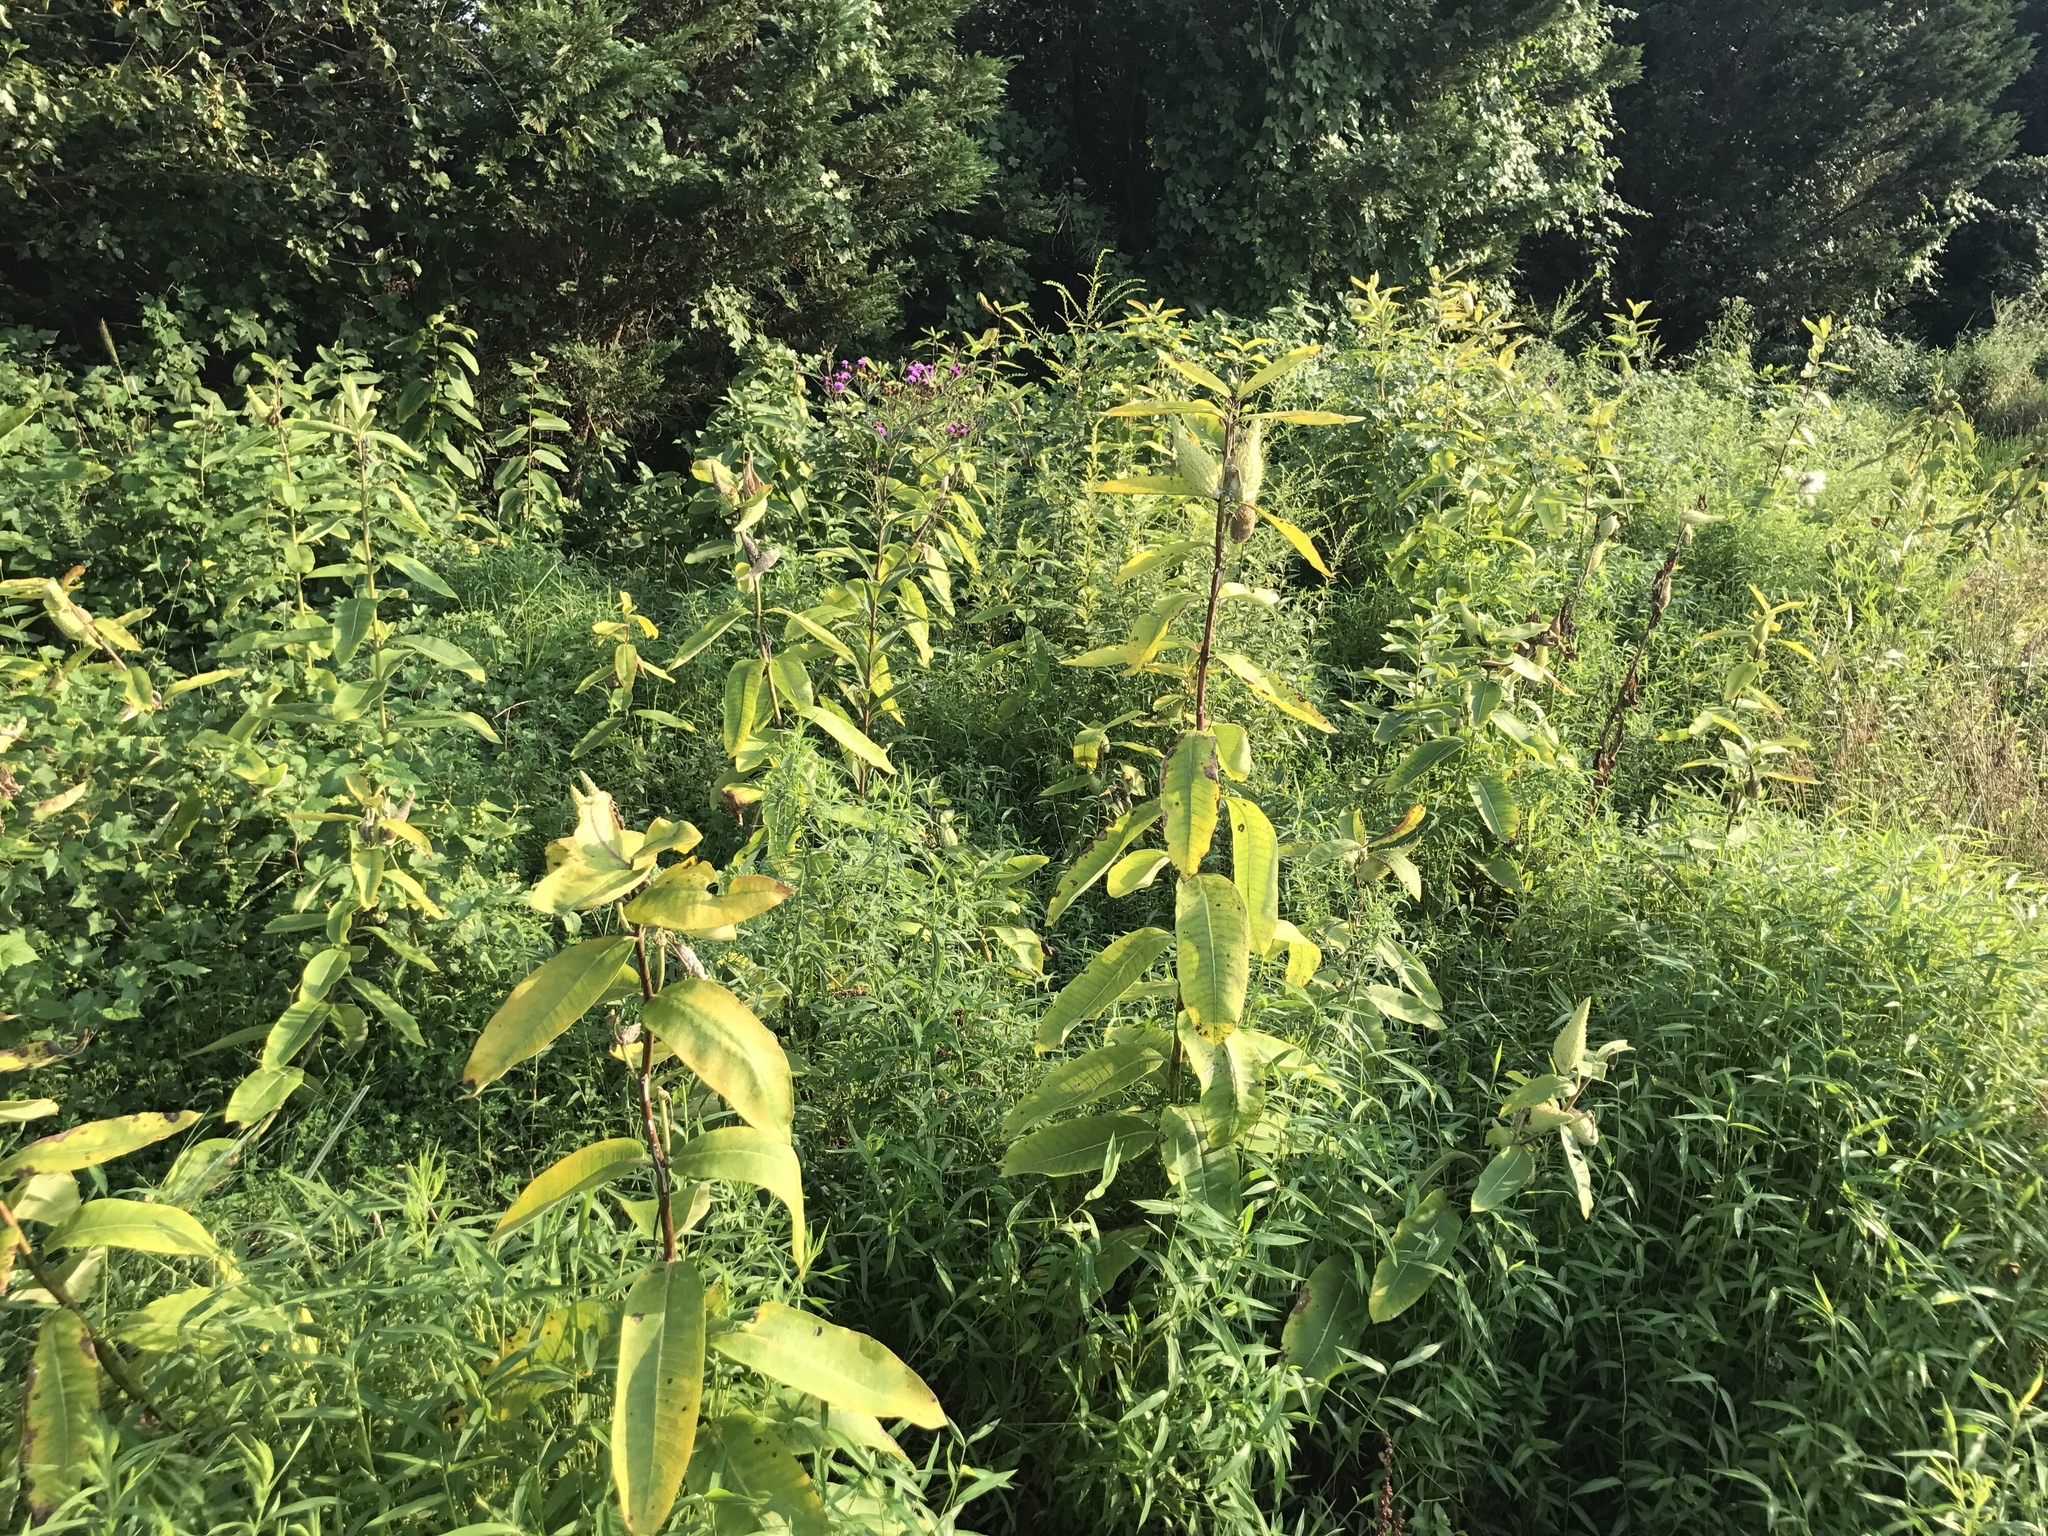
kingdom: Plantae
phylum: Tracheophyta
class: Magnoliopsida
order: Gentianales
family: Apocynaceae
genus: Asclepias
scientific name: Asclepias syriaca
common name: Common milkweed
